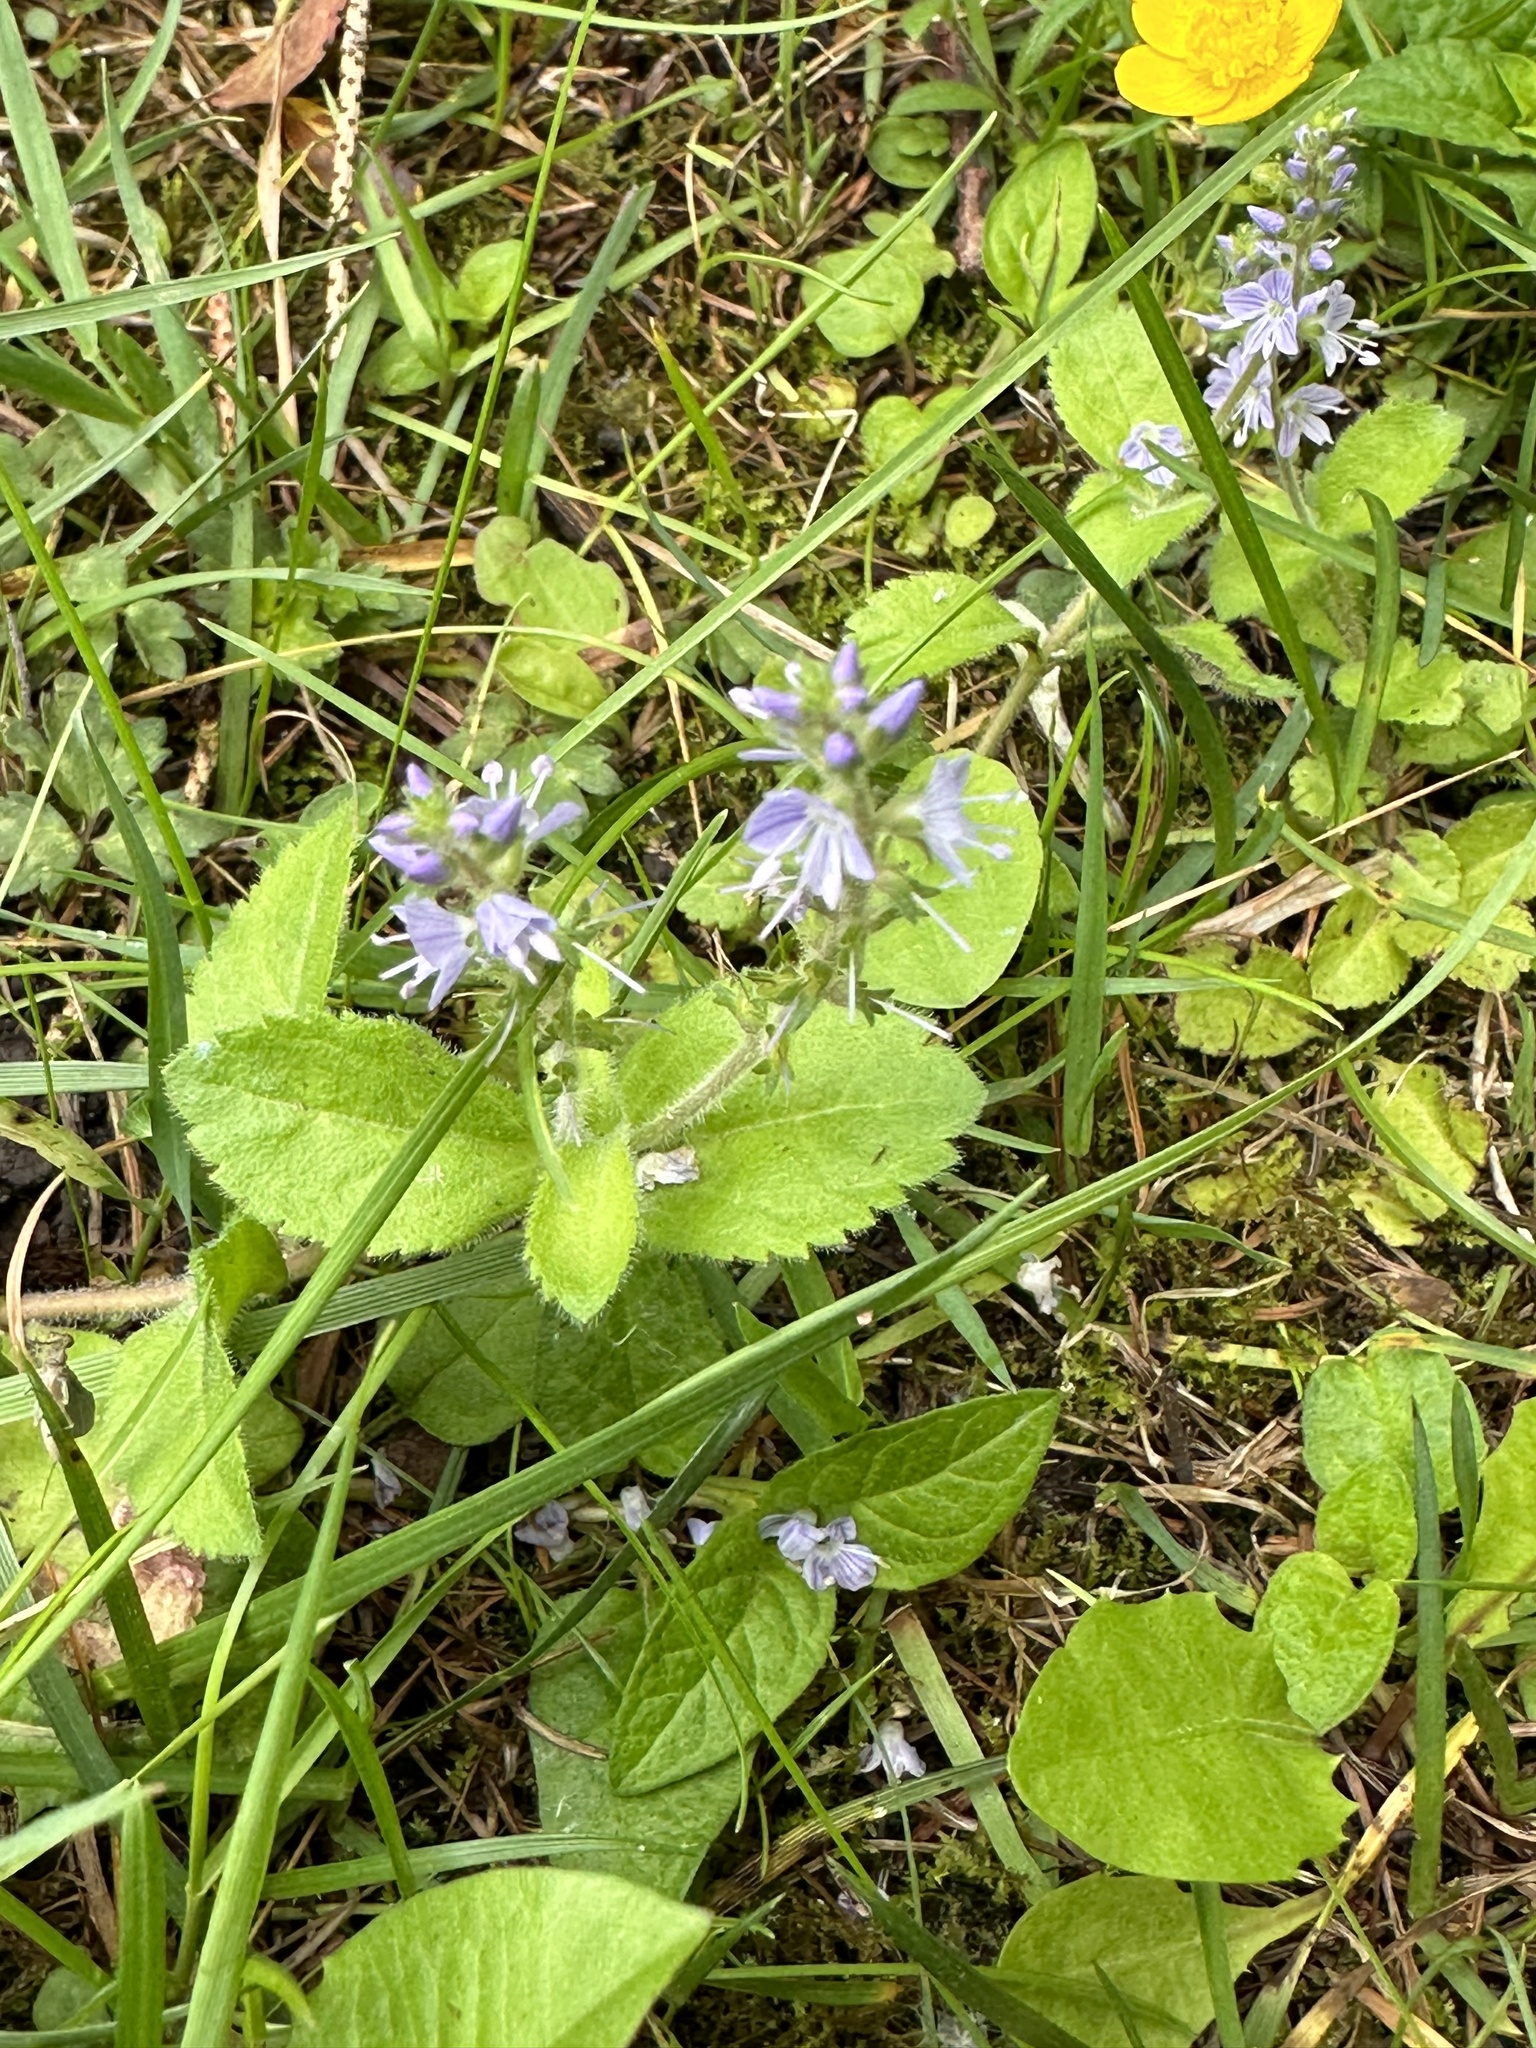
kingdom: Plantae
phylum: Tracheophyta
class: Magnoliopsida
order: Lamiales
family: Plantaginaceae
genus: Veronica
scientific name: Veronica officinalis
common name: Common speedwell
